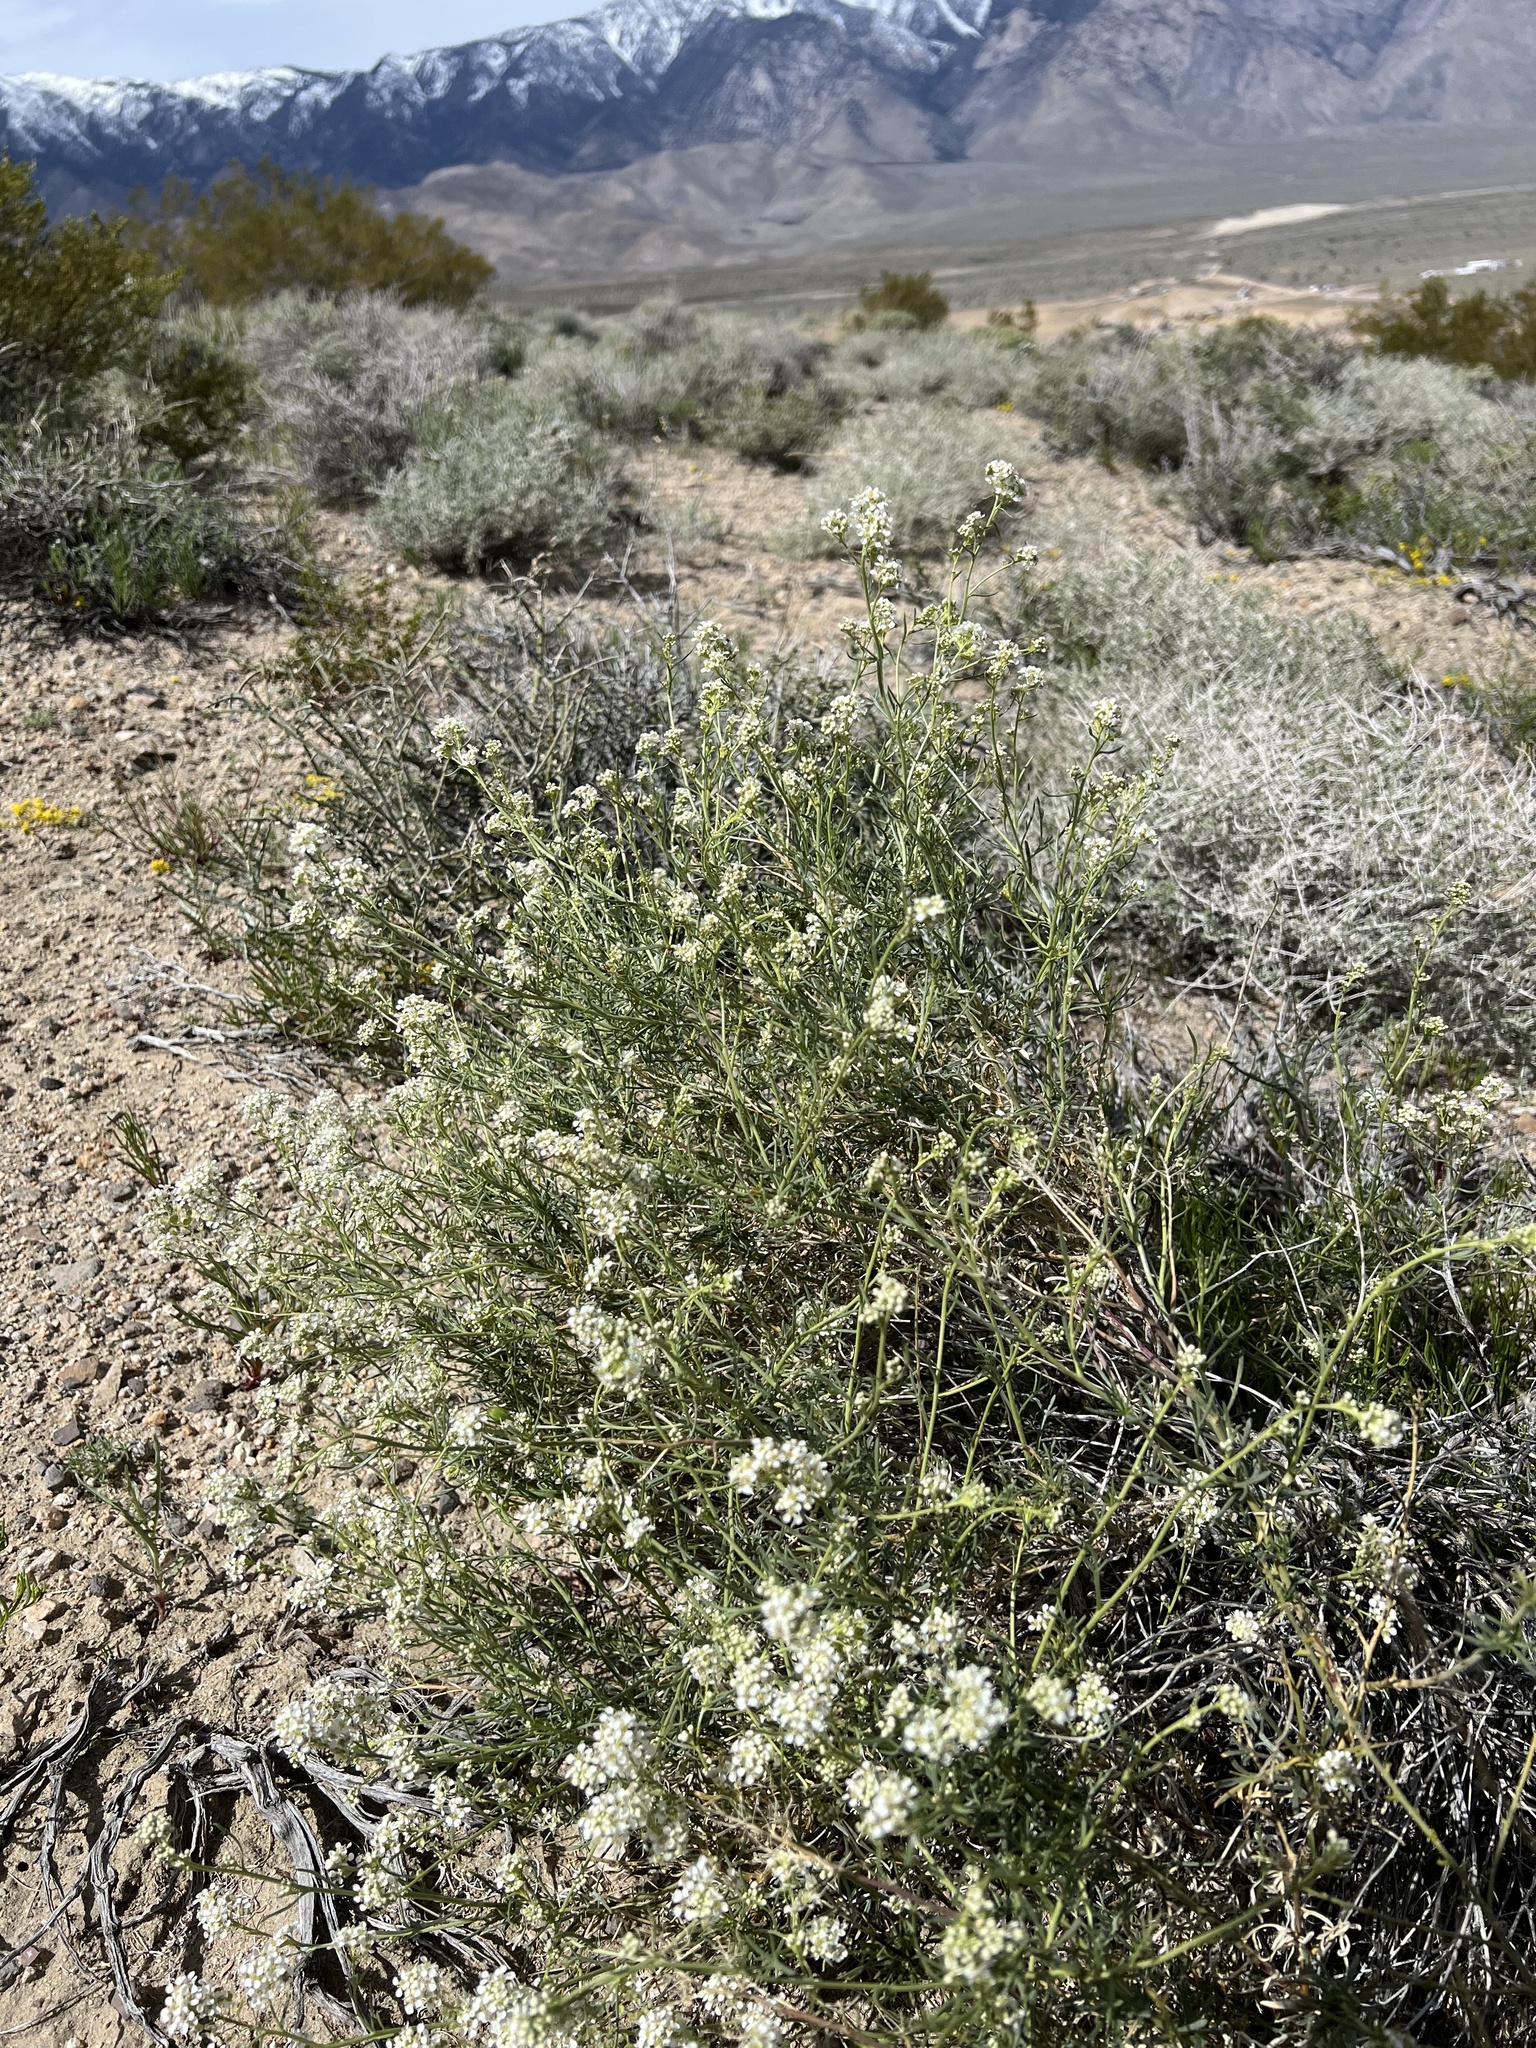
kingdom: Plantae
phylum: Tracheophyta
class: Magnoliopsida
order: Brassicales
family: Brassicaceae
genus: Lepidium
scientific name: Lepidium fremontii
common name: Fremont's pepperwort
